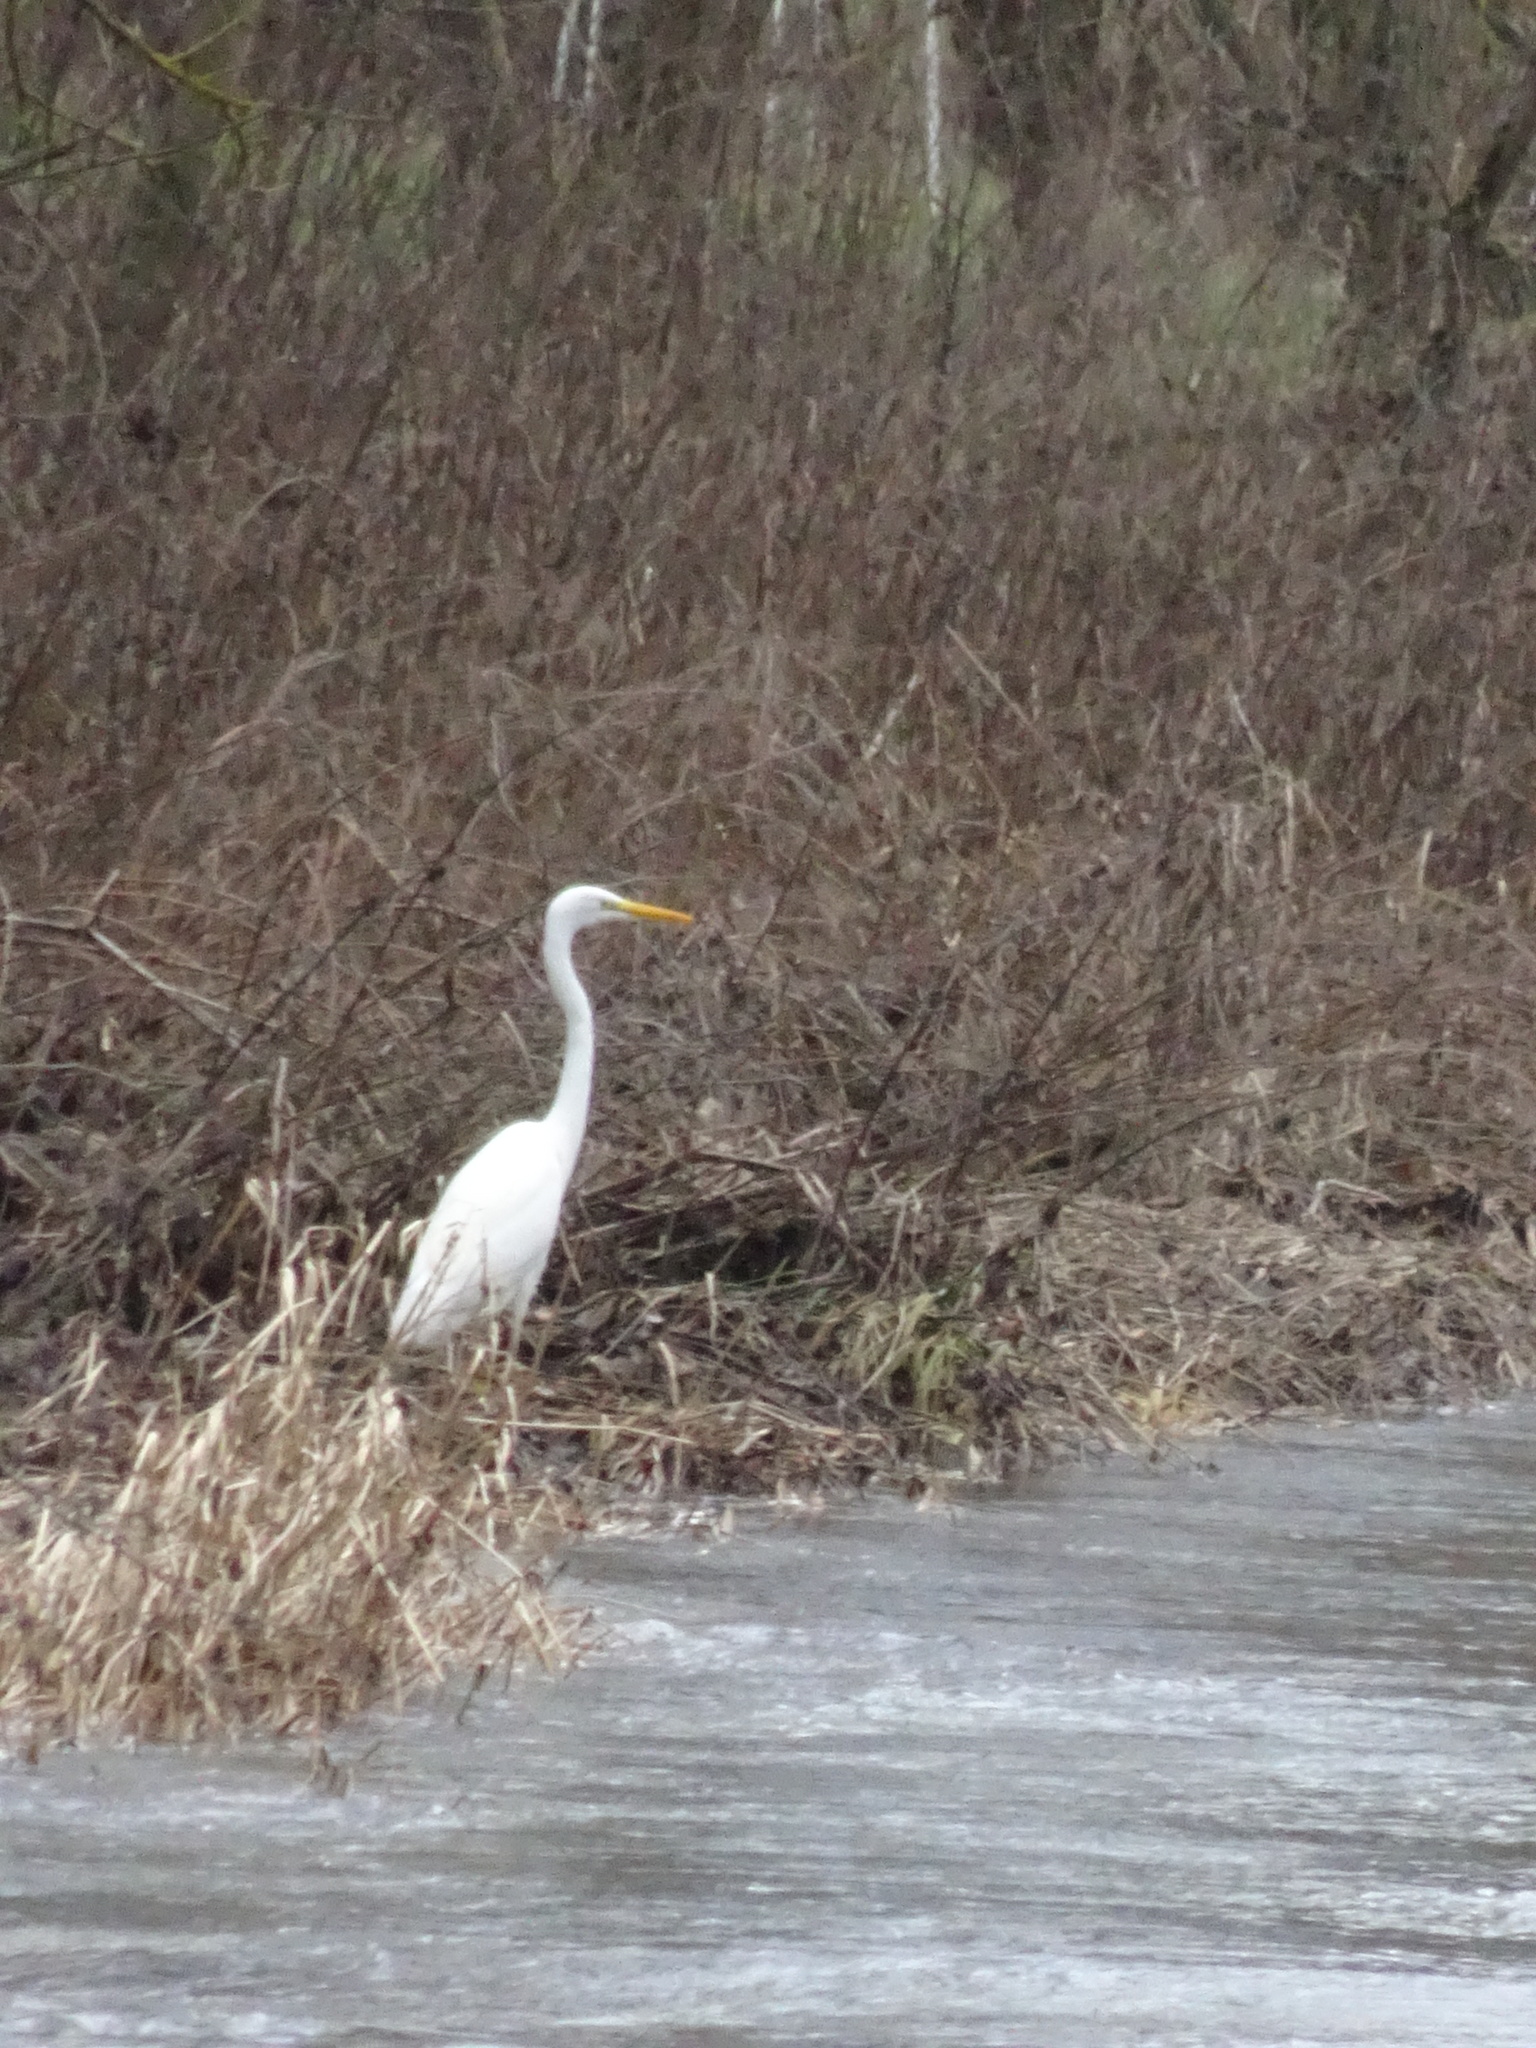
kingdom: Animalia
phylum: Chordata
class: Aves
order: Pelecaniformes
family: Ardeidae
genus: Ardea
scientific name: Ardea alba
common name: Great egret
